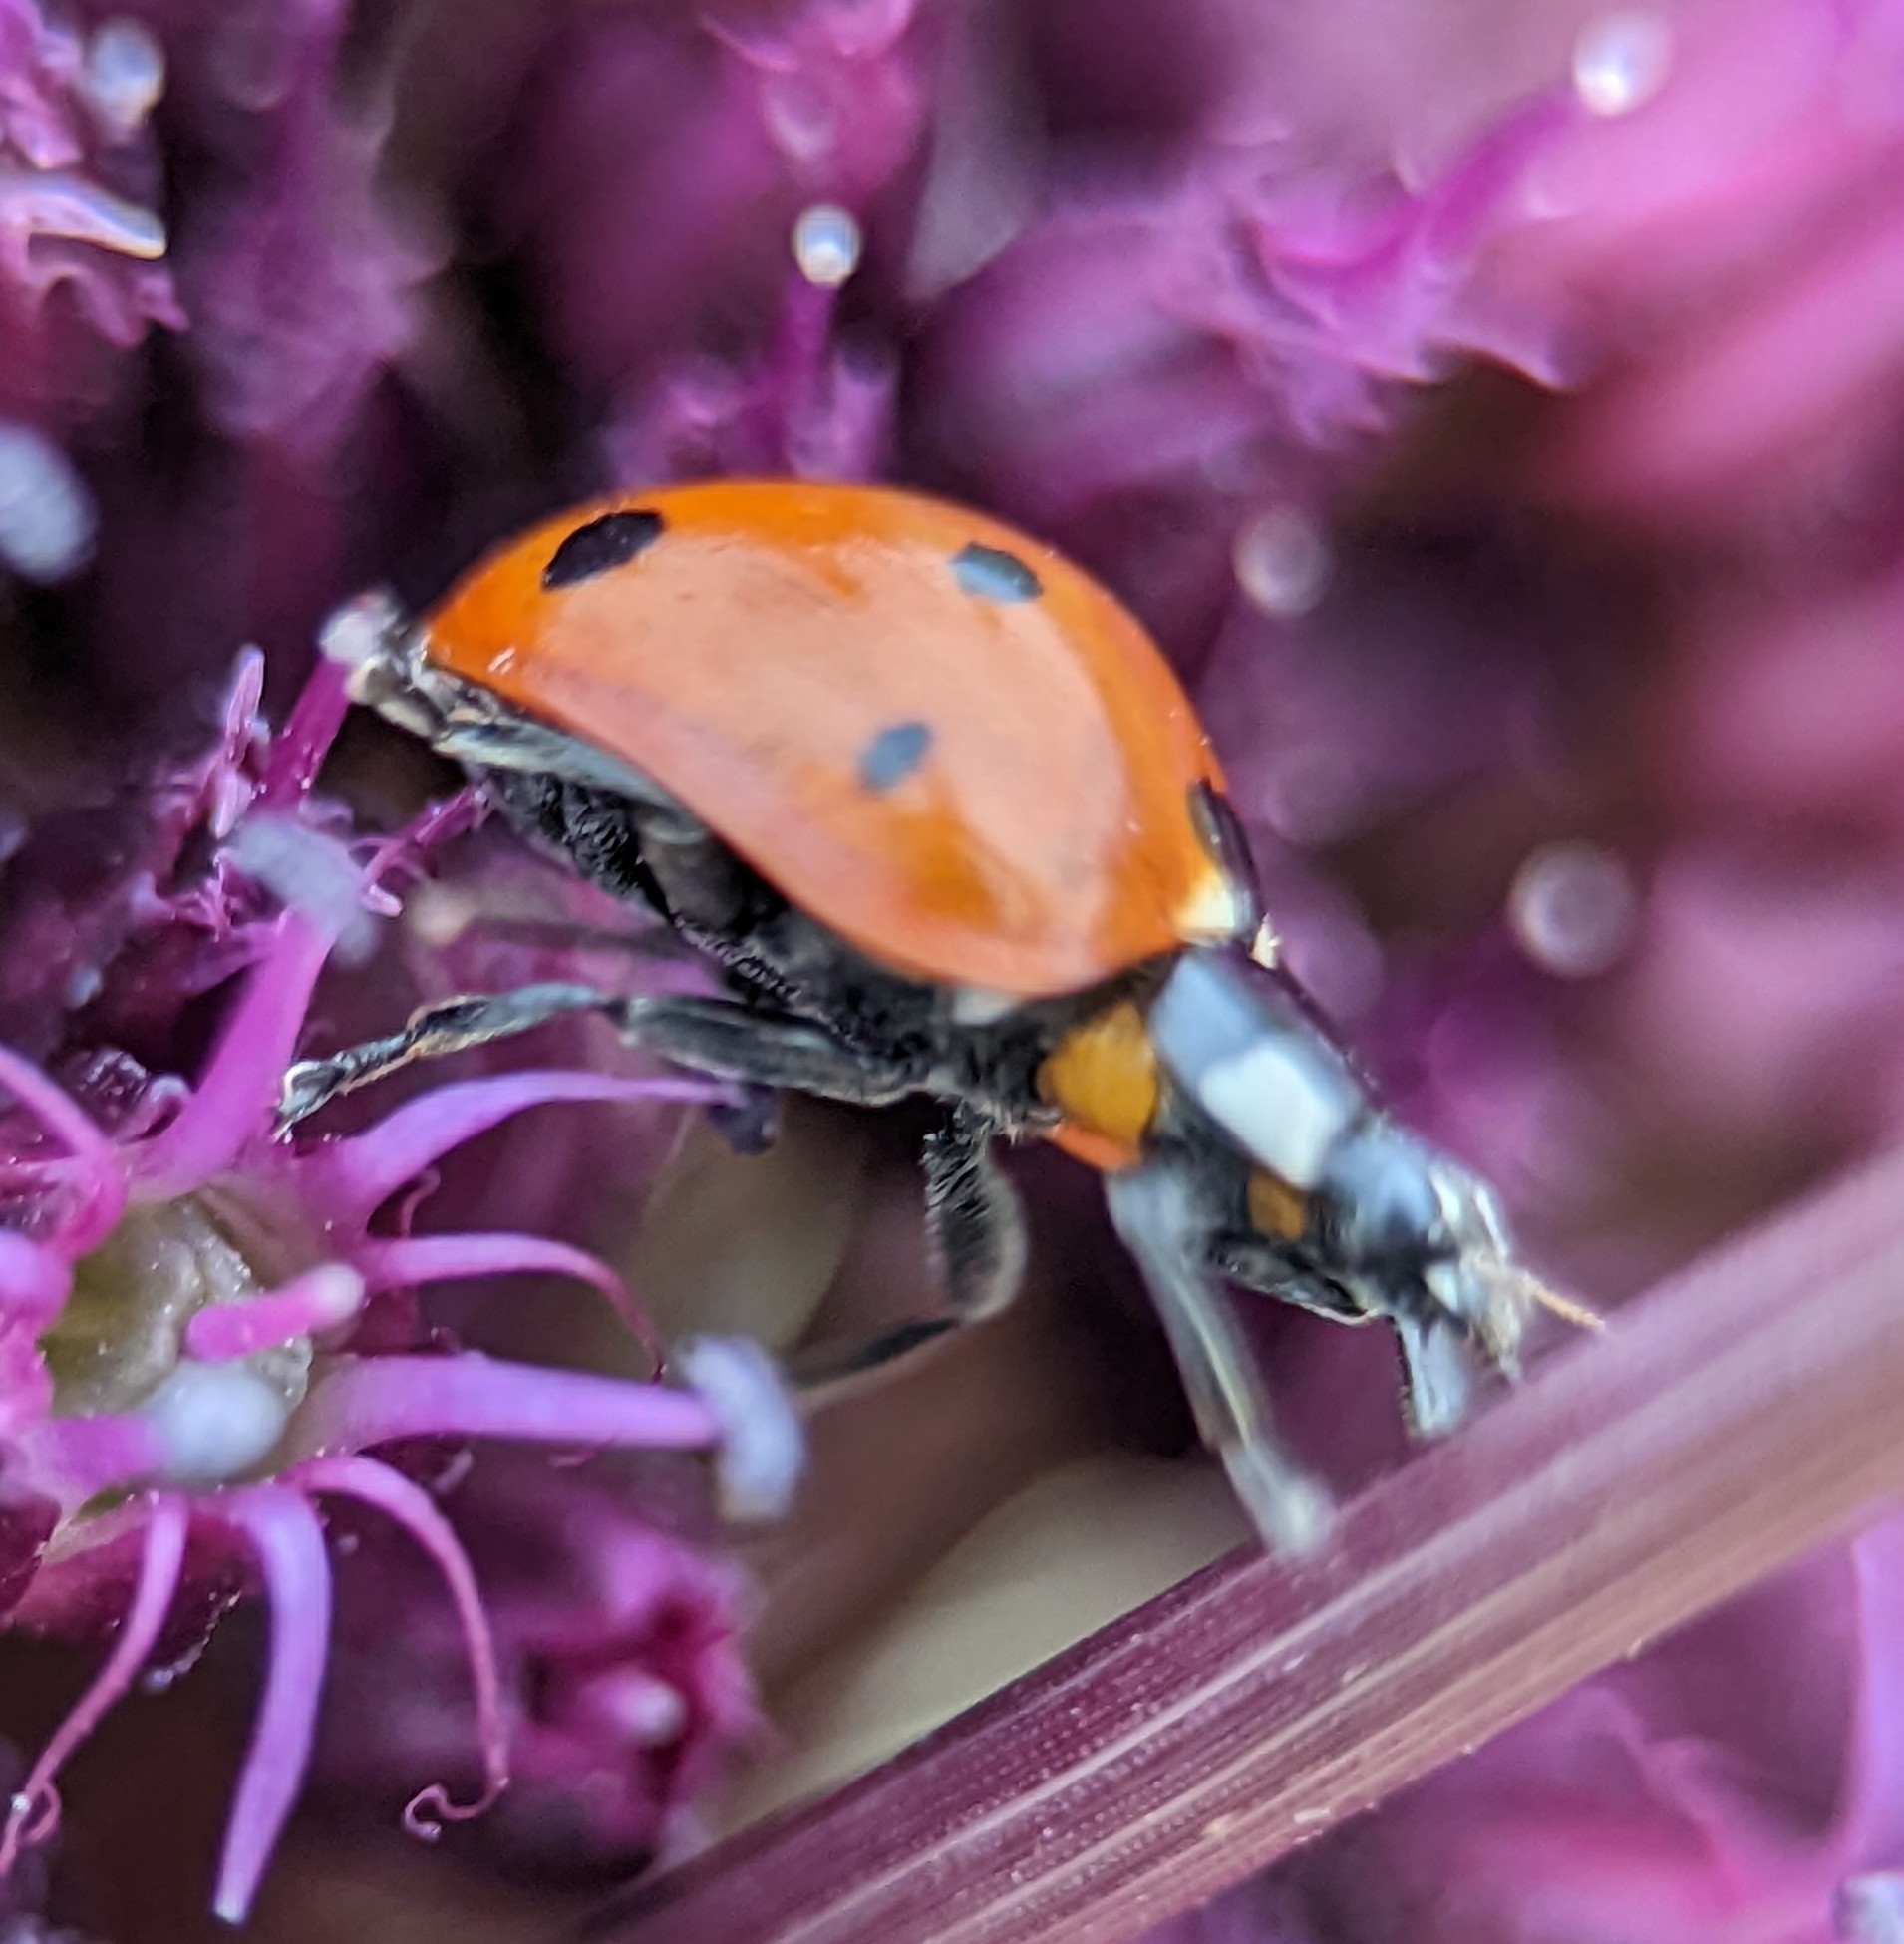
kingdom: Animalia
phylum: Arthropoda
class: Insecta
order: Coleoptera
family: Coccinellidae
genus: Coccinella
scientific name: Coccinella septempunctata
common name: Sevenspotted lady beetle
